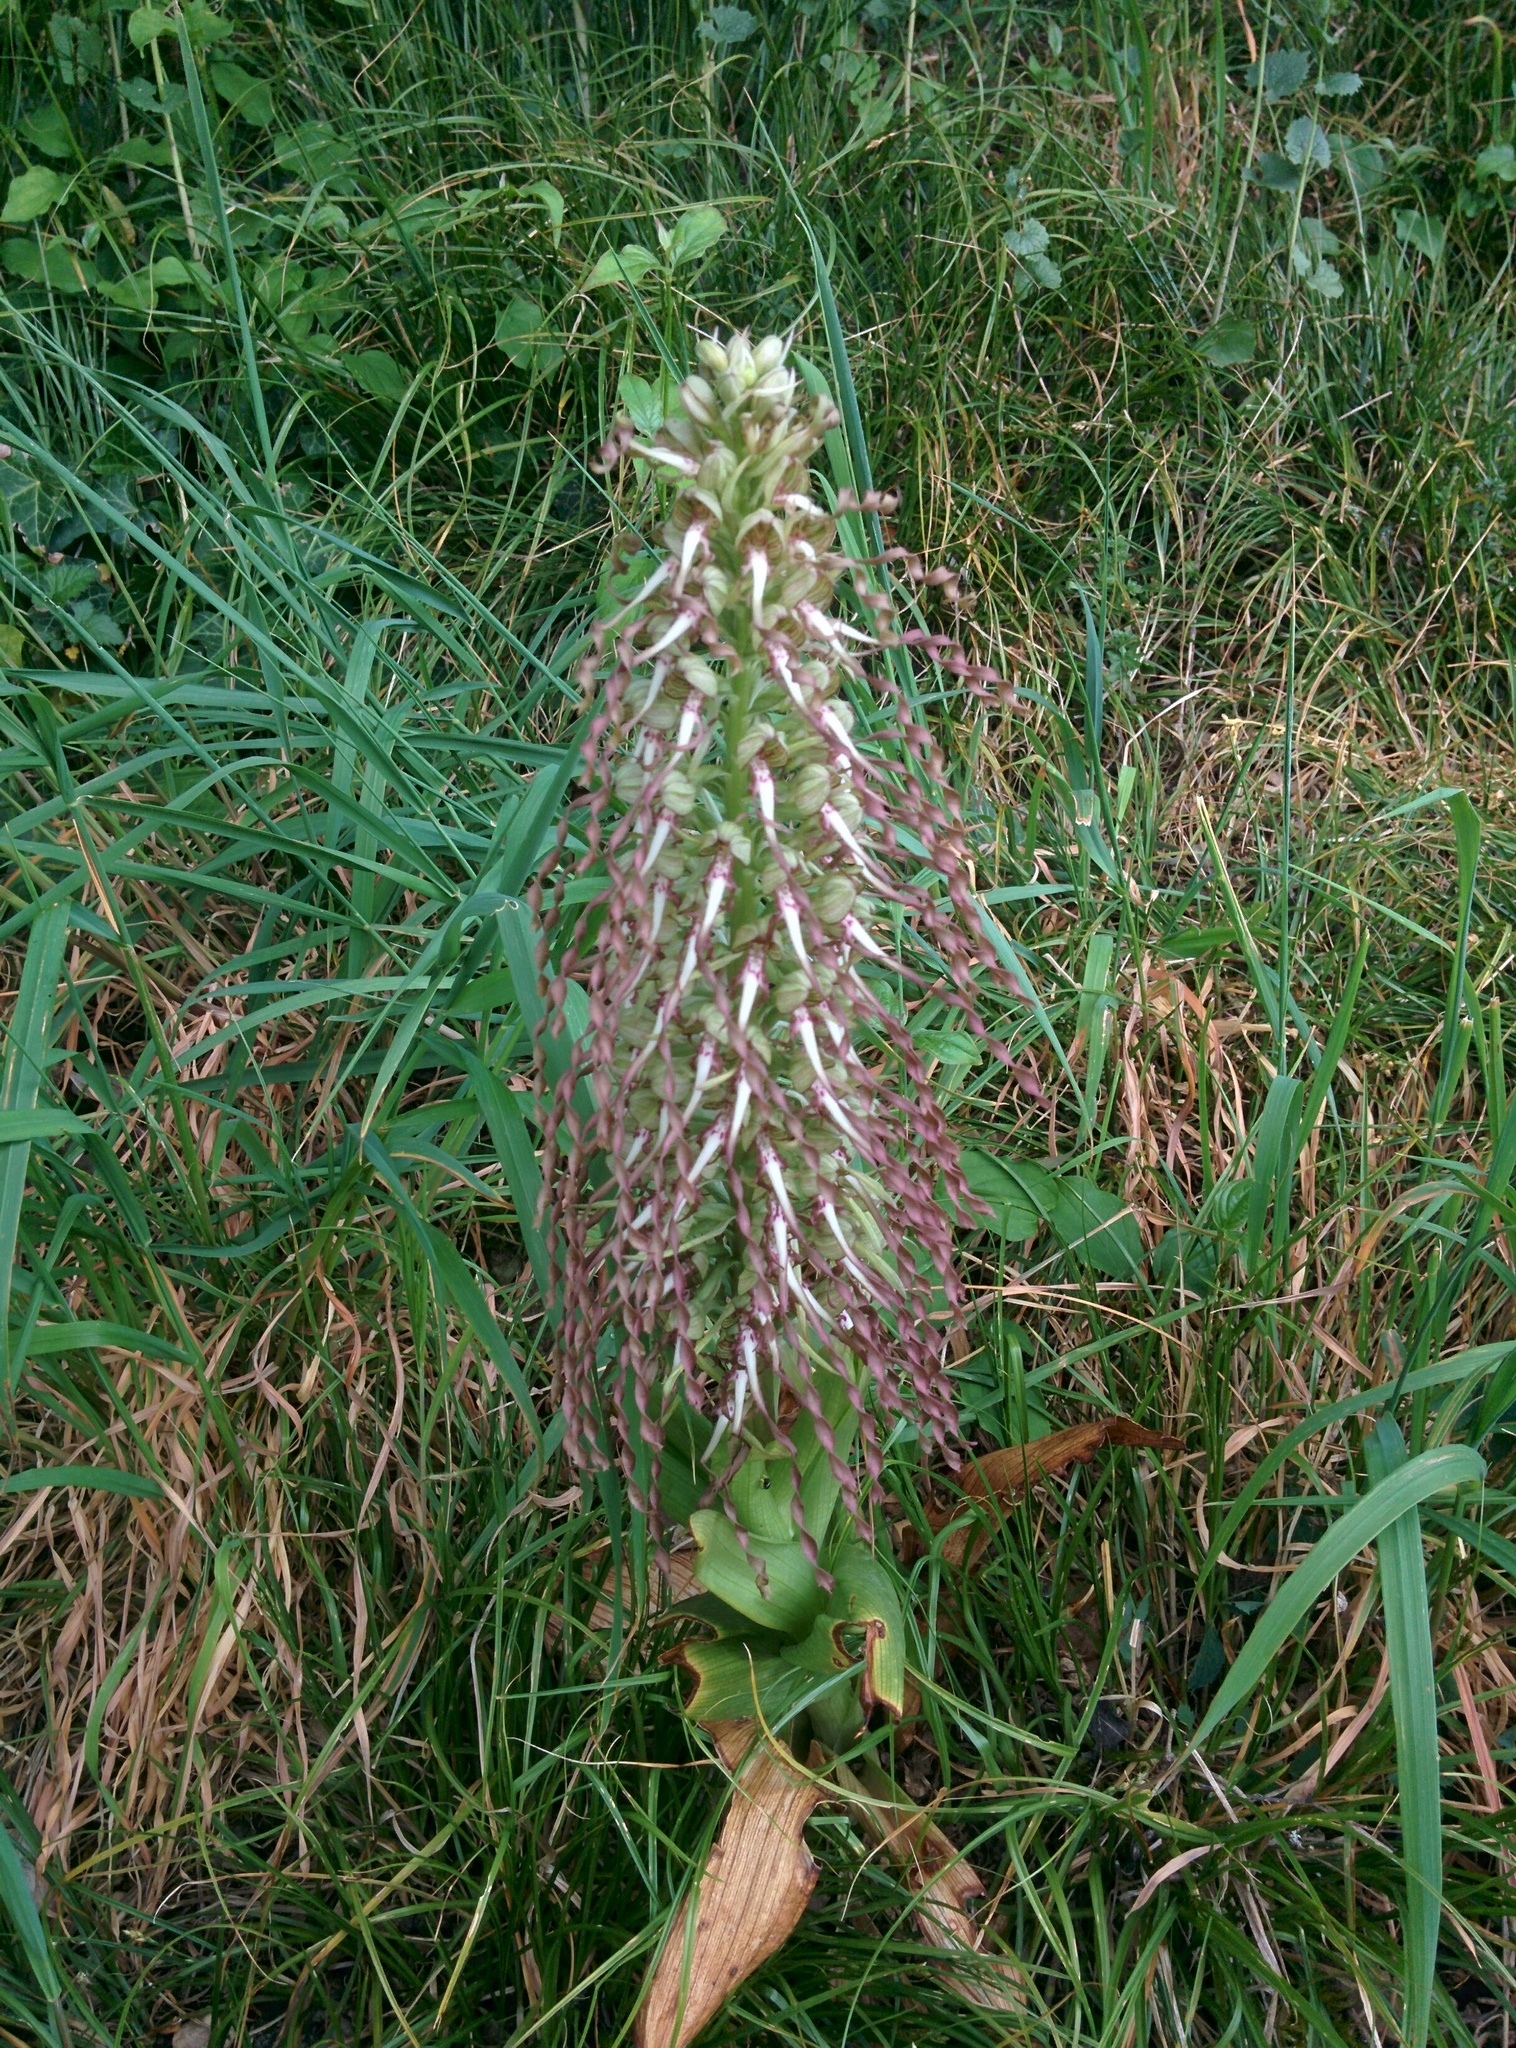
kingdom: Plantae
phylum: Tracheophyta
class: Liliopsida
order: Asparagales
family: Orchidaceae
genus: Himantoglossum
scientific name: Himantoglossum hircinum
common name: Lizard orchid
